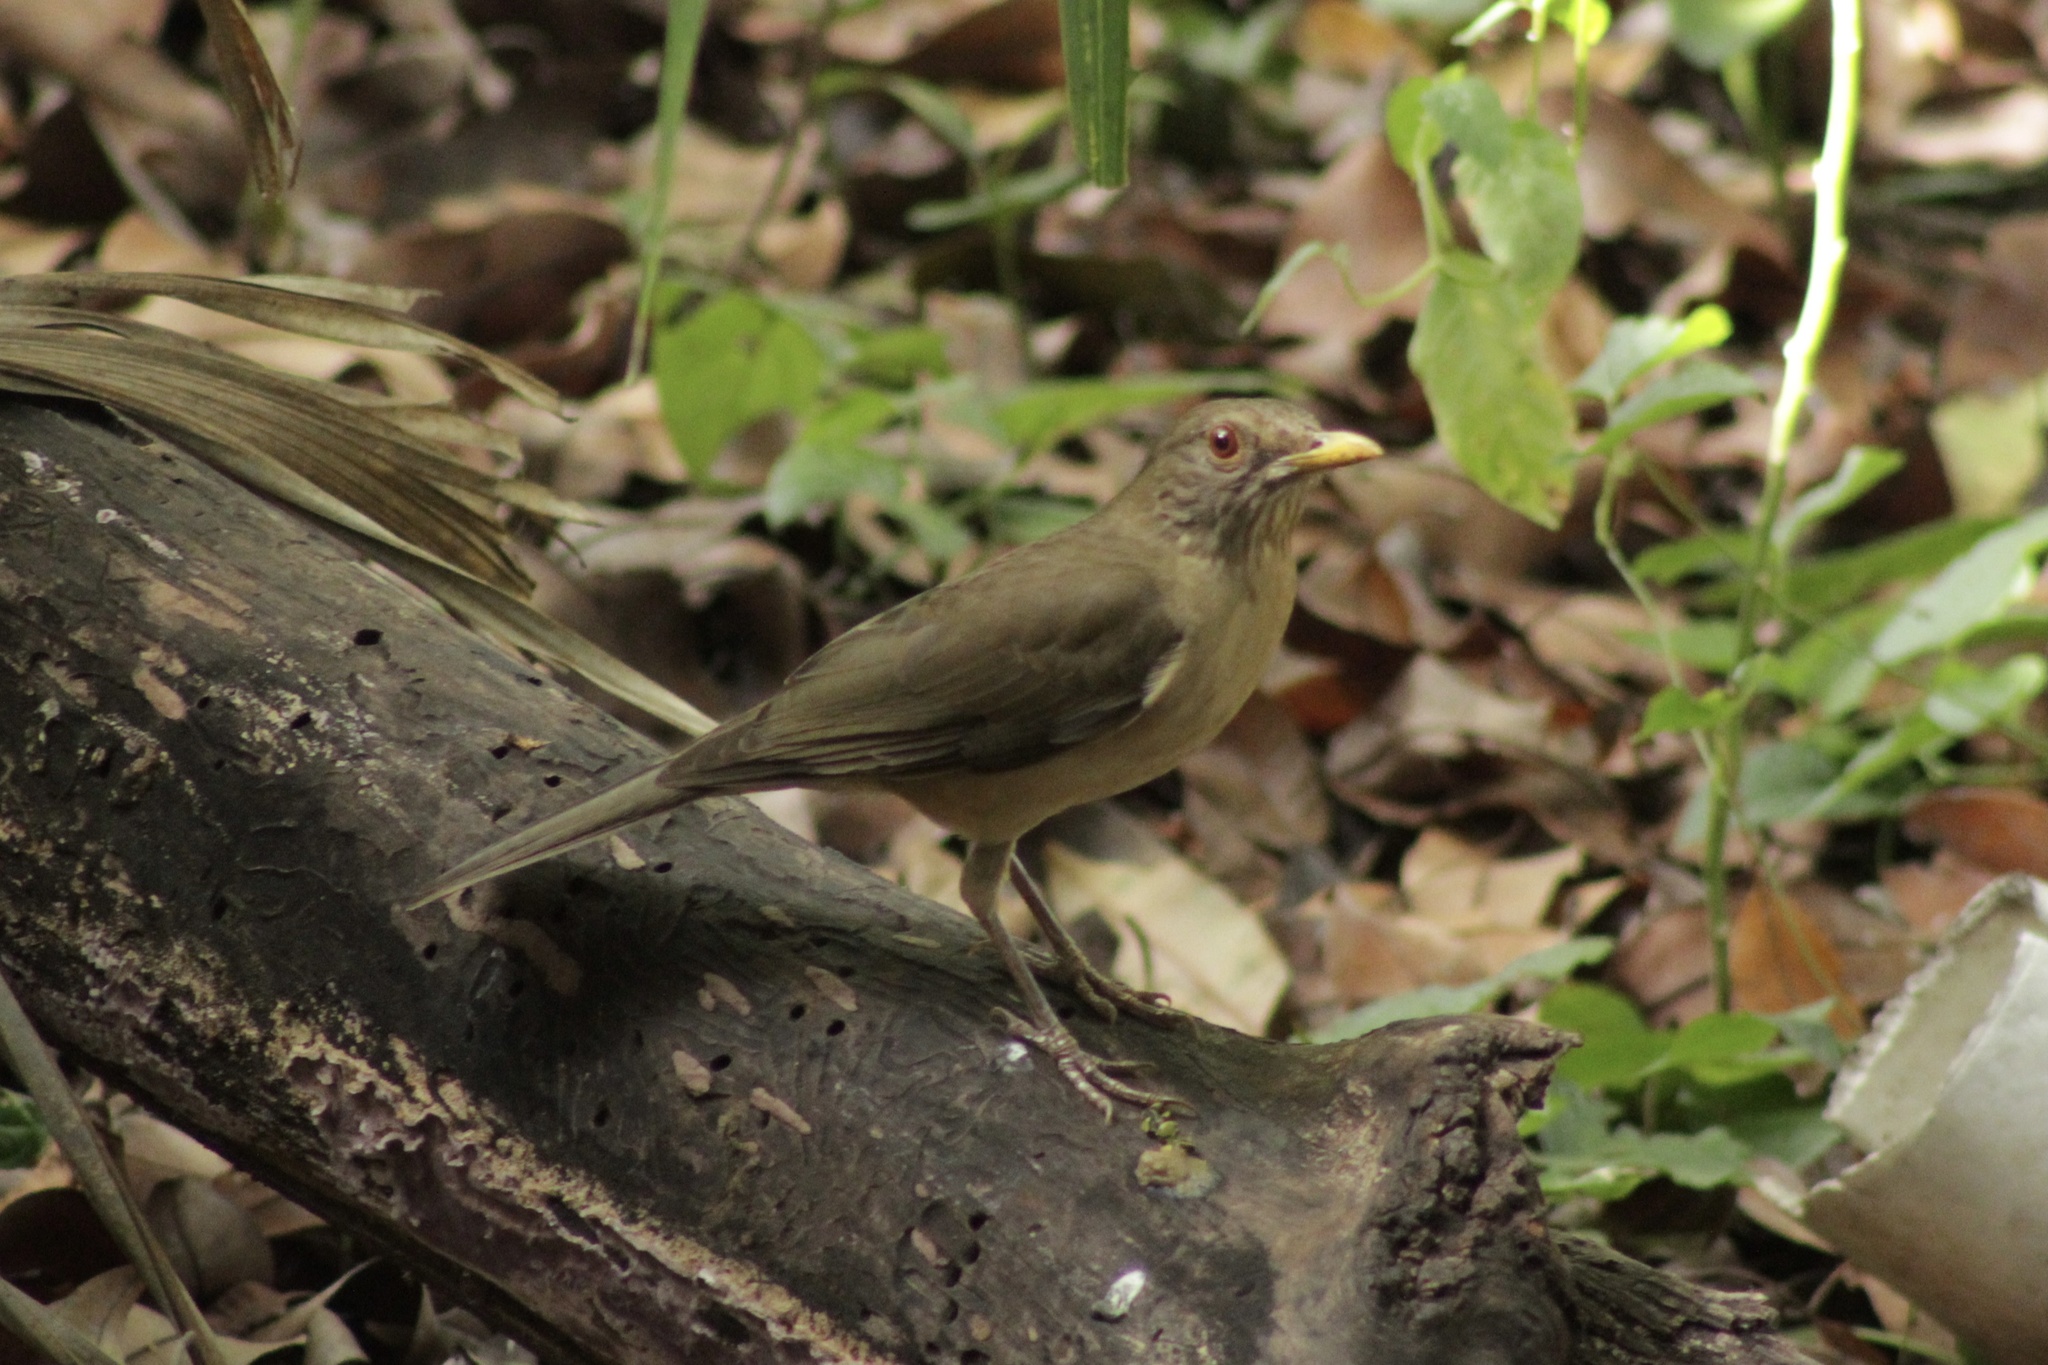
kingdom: Animalia
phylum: Chordata
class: Aves
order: Passeriformes
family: Turdidae
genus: Turdus
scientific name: Turdus grayi
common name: Clay-colored thrush
